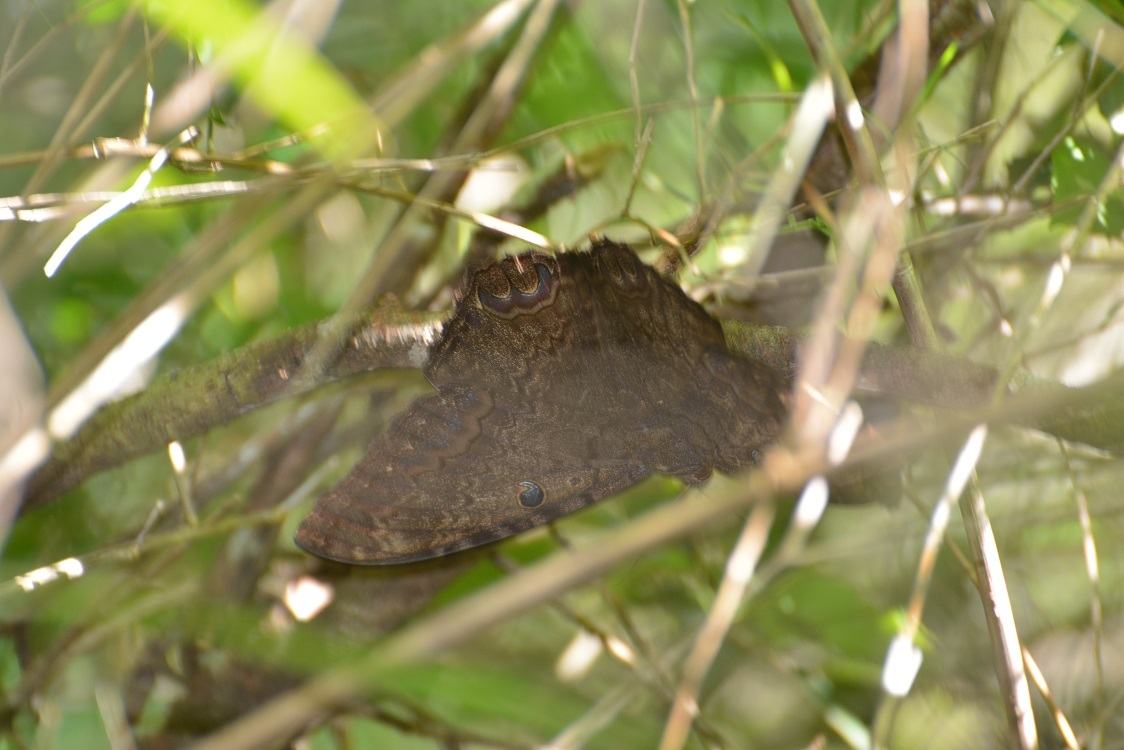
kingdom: Animalia
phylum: Arthropoda
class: Insecta
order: Lepidoptera
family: Erebidae
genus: Ascalapha
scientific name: Ascalapha odorata
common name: Black witch
